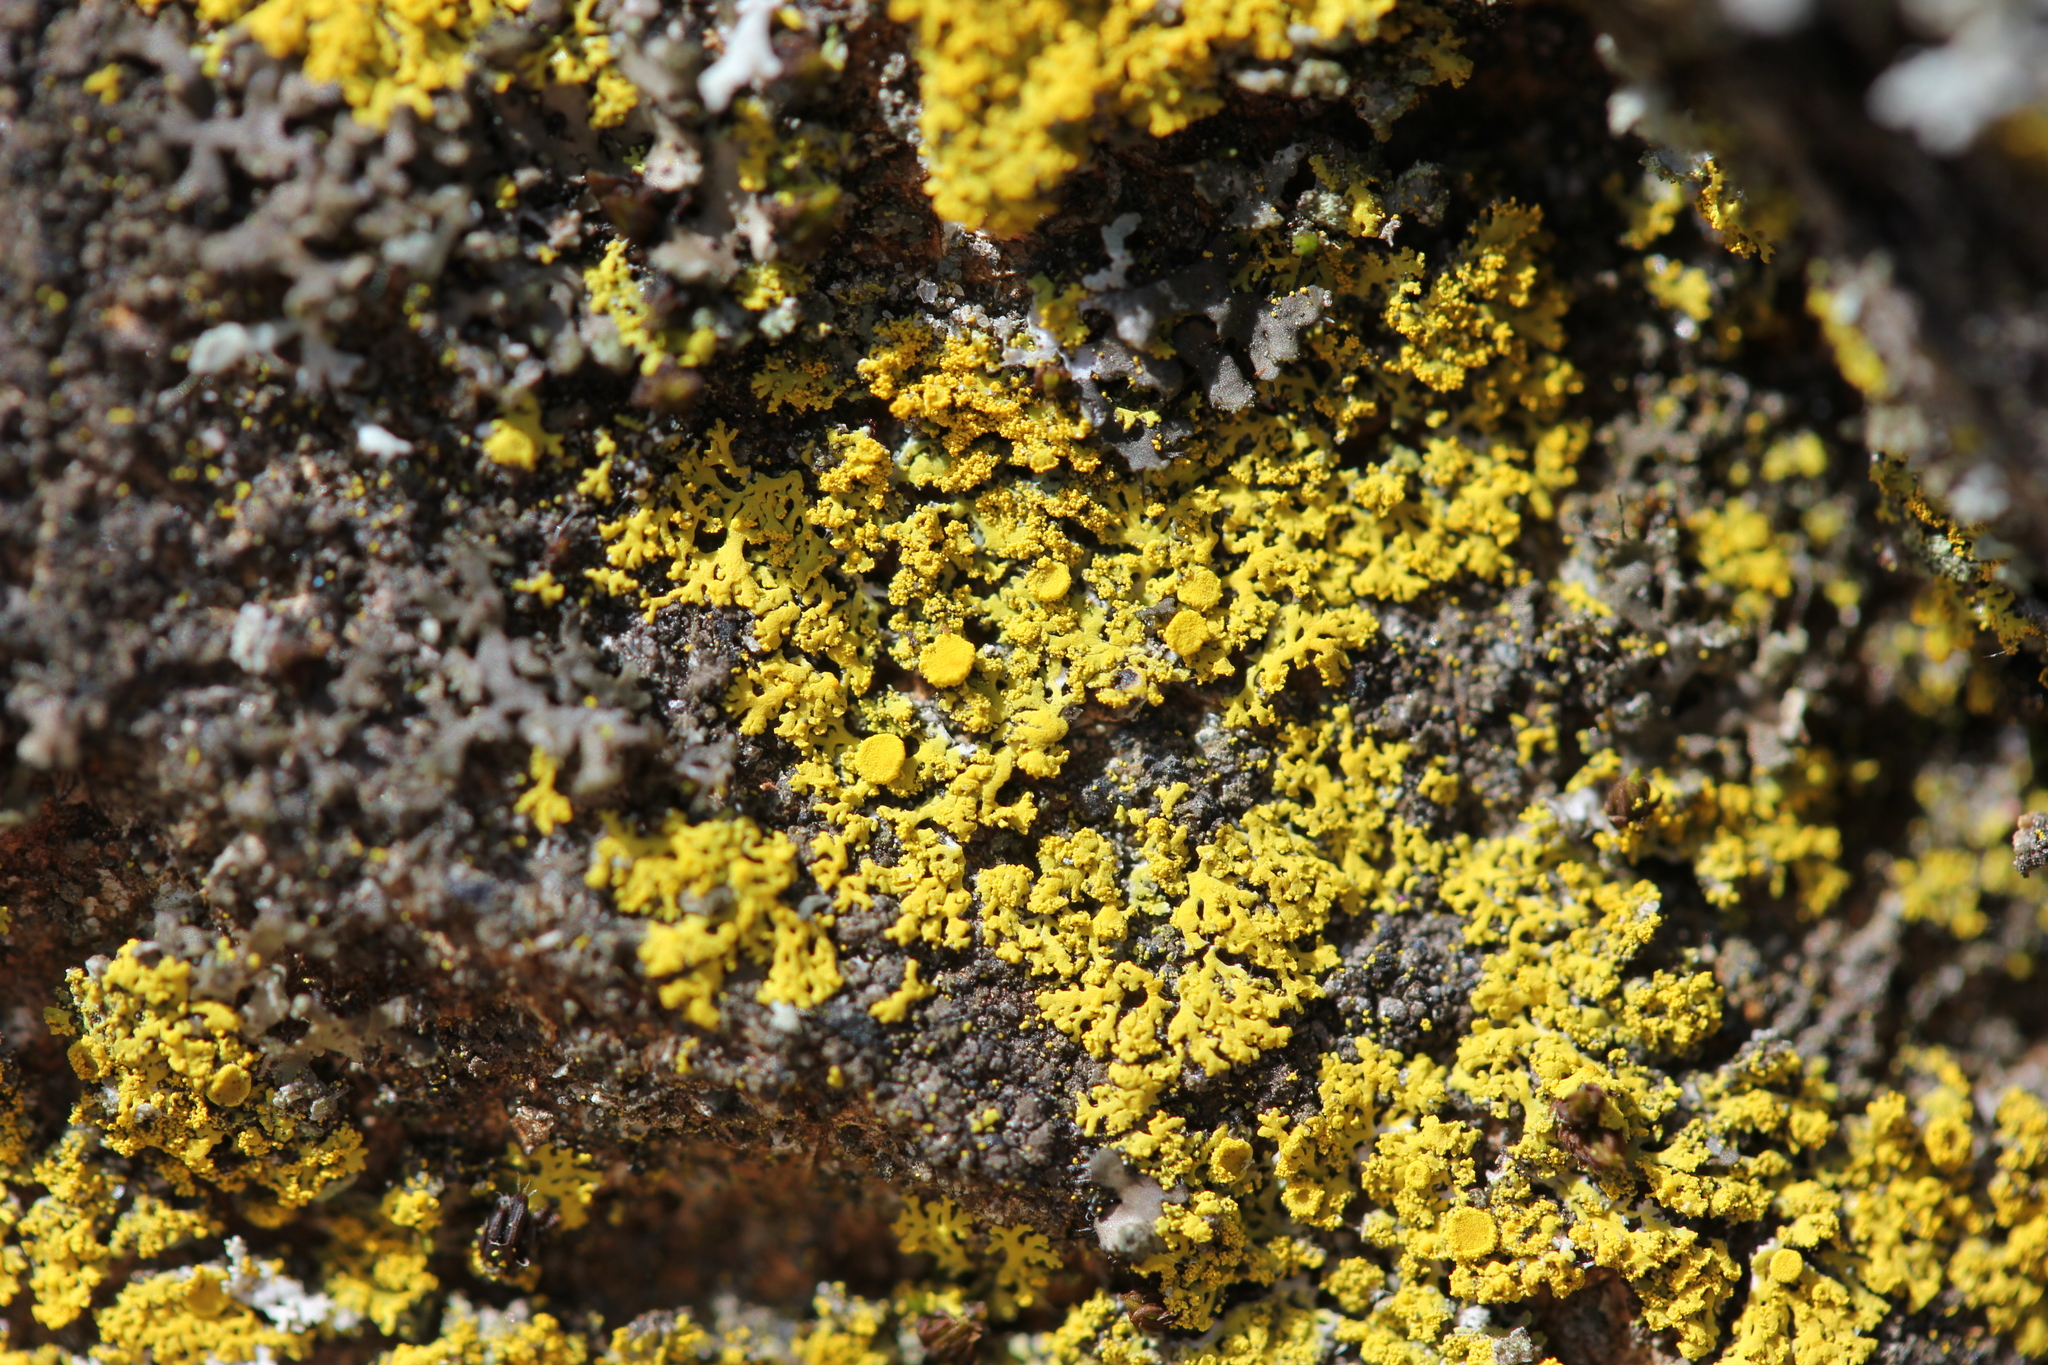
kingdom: Fungi
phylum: Ascomycota
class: Candelariomycetes
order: Candelariales
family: Candelariaceae
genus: Candelaria
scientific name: Candelaria concolor
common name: Candleflame lichen
